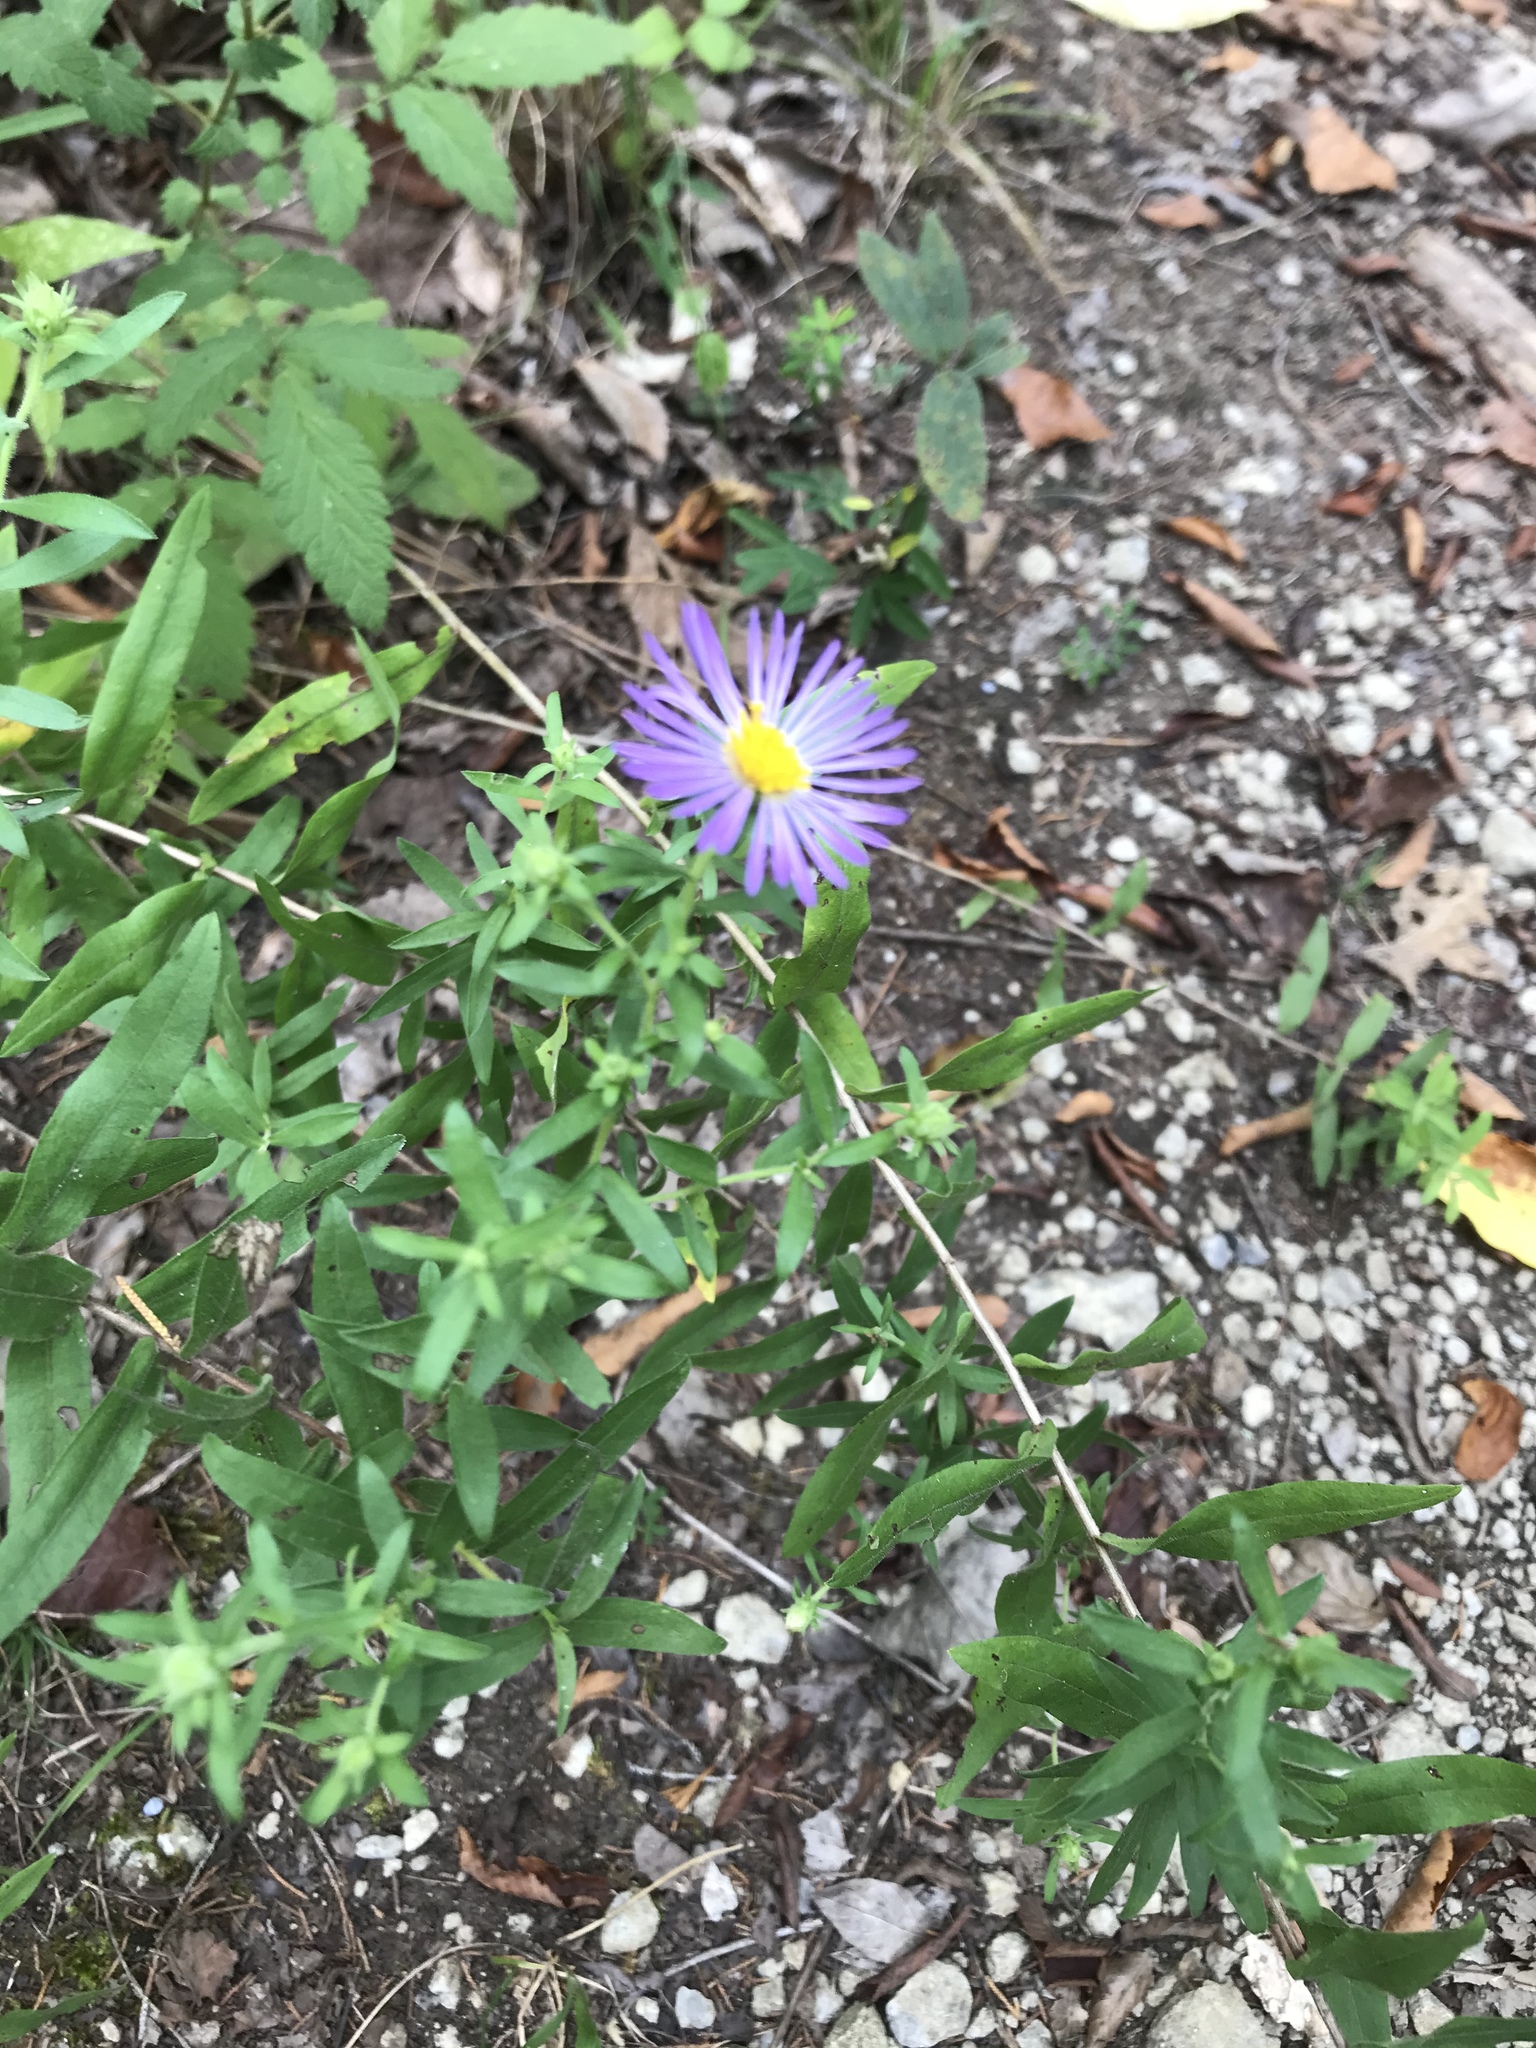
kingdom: Plantae
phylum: Tracheophyta
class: Magnoliopsida
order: Asterales
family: Asteraceae
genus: Symphyotrichum
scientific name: Symphyotrichum novae-angliae
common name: Michaelmas daisy
